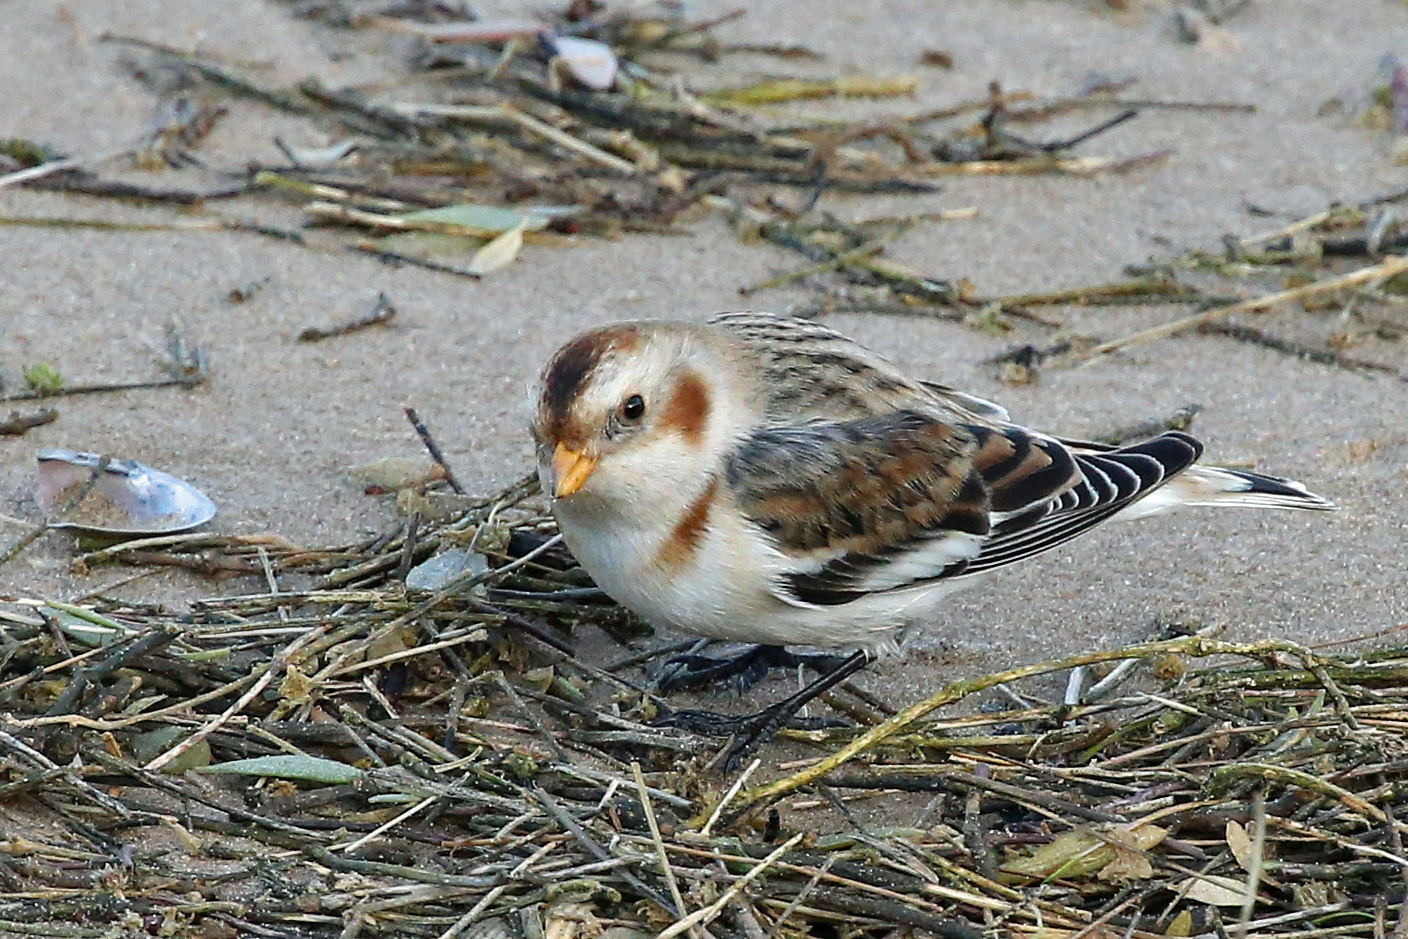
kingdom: Animalia
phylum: Chordata
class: Aves
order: Passeriformes
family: Calcariidae
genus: Plectrophenax
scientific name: Plectrophenax nivalis
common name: Snow bunting
